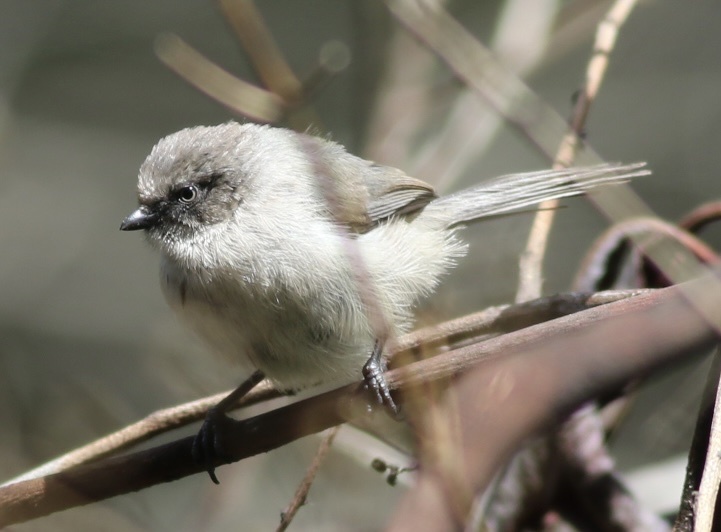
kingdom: Animalia
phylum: Chordata
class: Aves
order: Passeriformes
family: Aegithalidae
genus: Psaltriparus
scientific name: Psaltriparus minimus
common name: American bushtit
